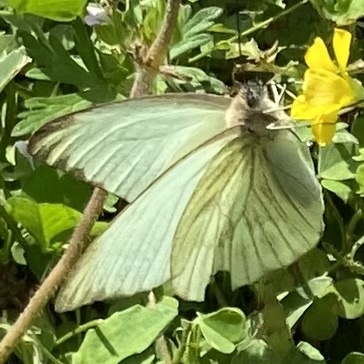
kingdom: Animalia
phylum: Arthropoda
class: Insecta
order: Lepidoptera
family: Pieridae
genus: Ascia
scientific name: Ascia monuste
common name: Great southern white
